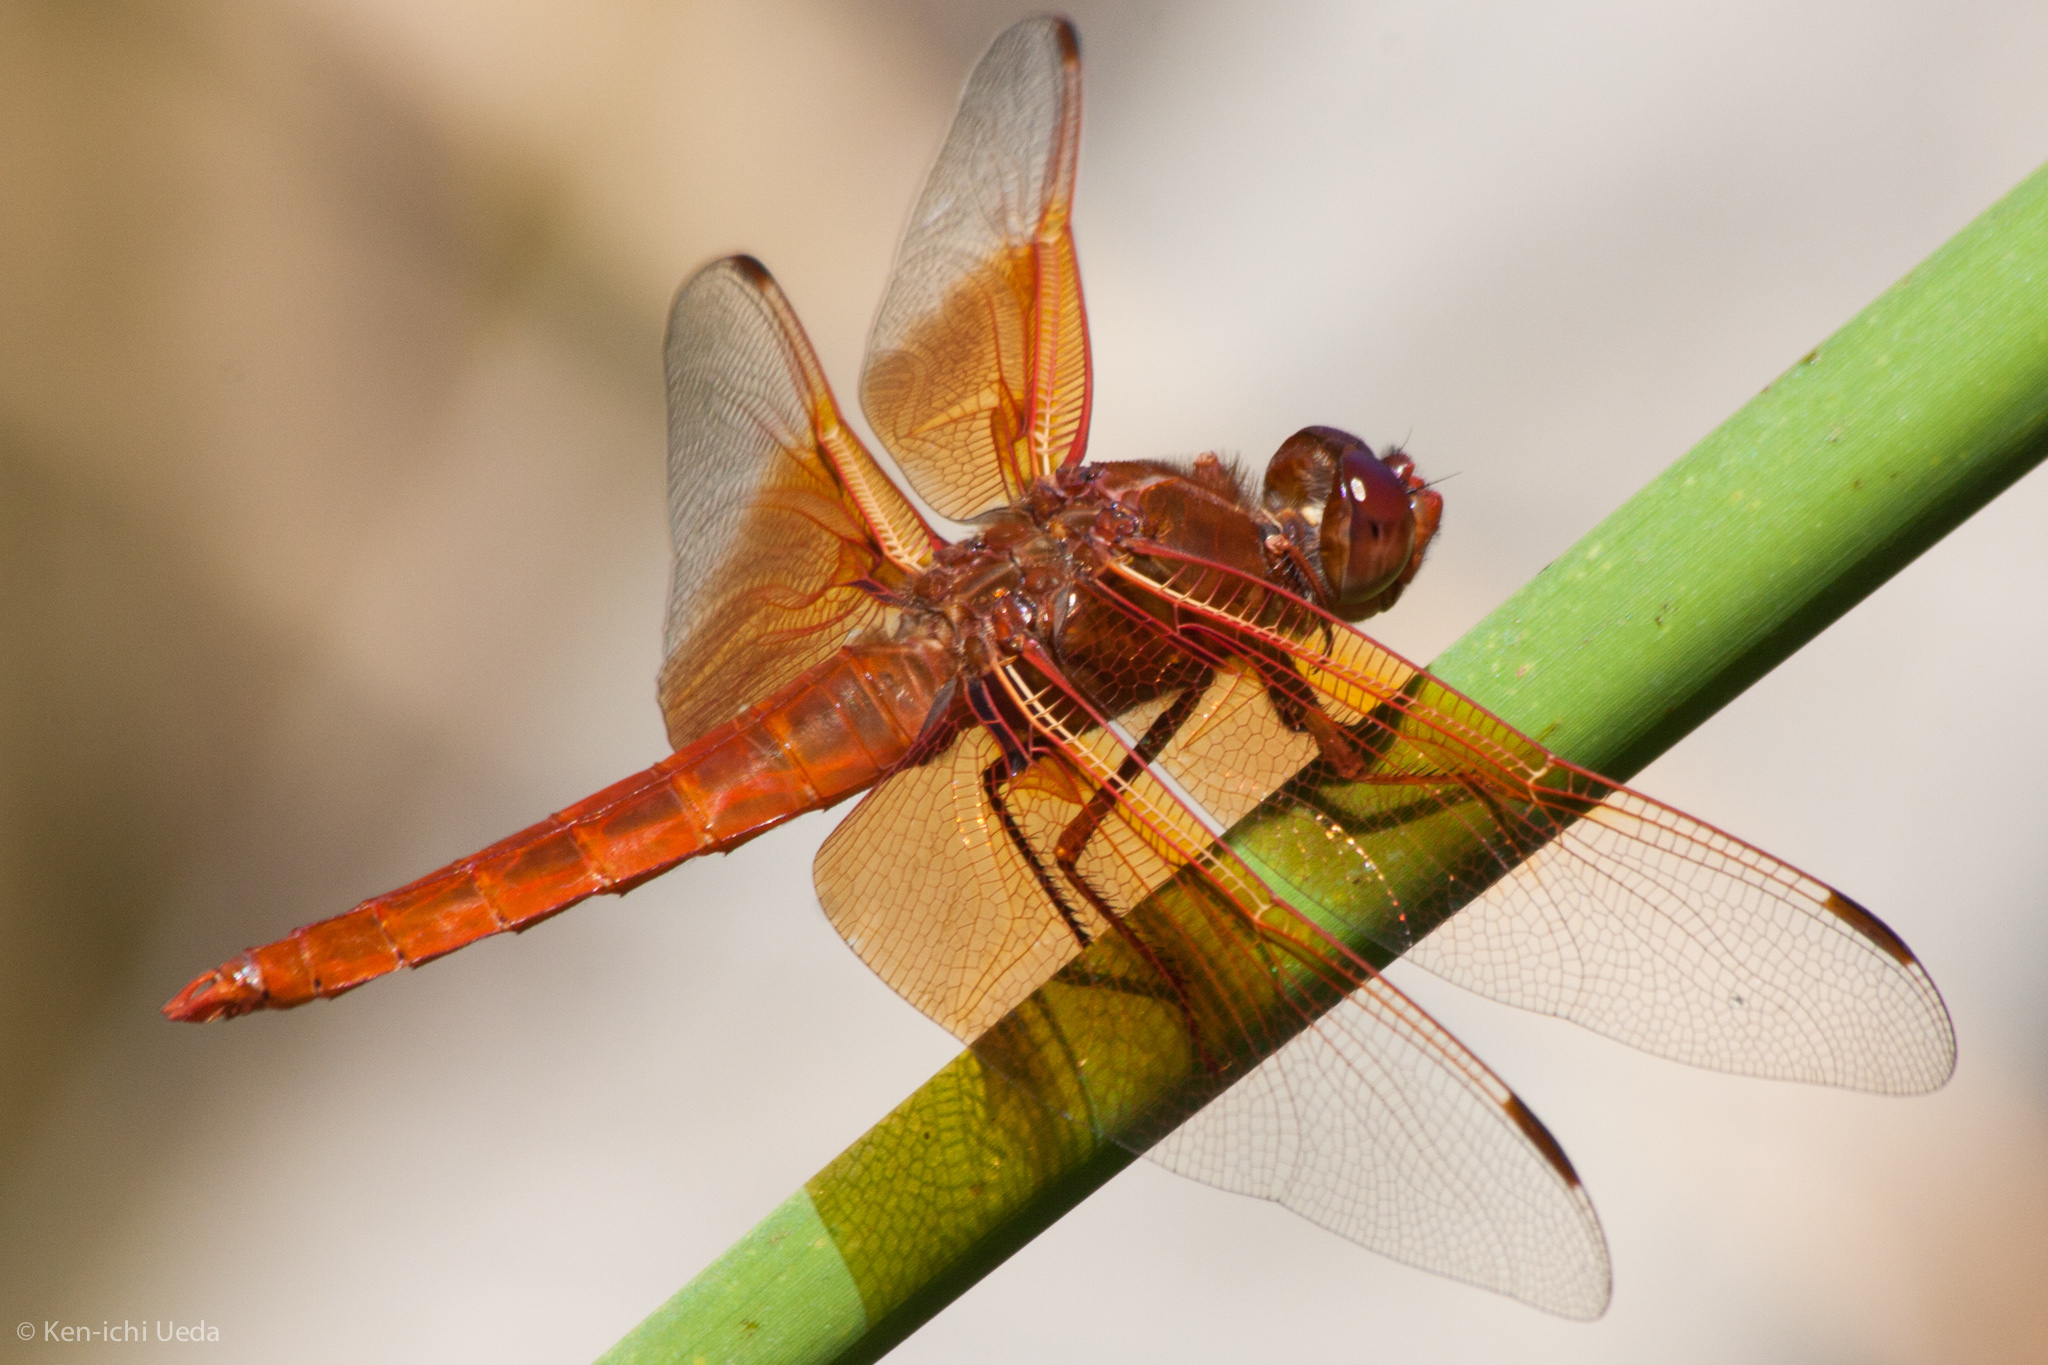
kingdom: Animalia
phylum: Arthropoda
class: Insecta
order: Odonata
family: Libellulidae
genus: Libellula
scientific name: Libellula saturata
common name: Flame skimmer
